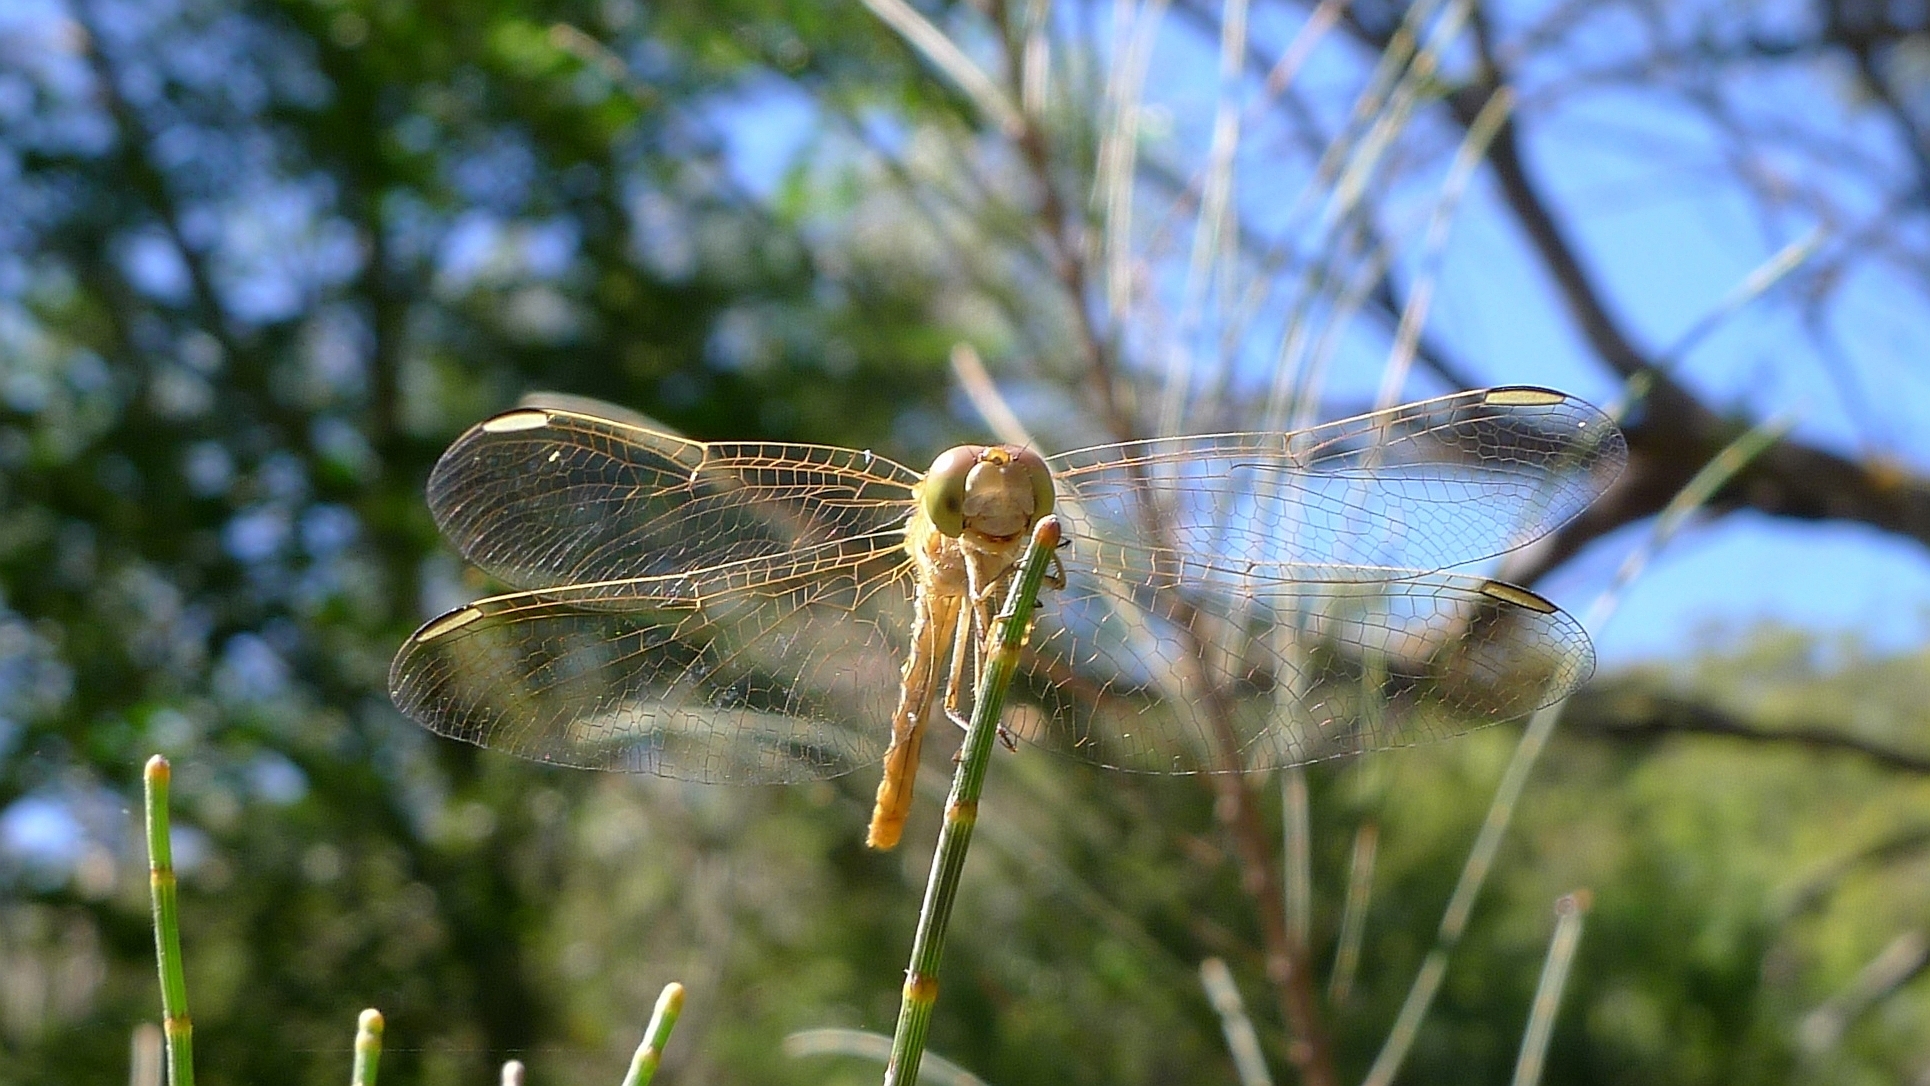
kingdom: Animalia
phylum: Arthropoda
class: Insecta
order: Odonata
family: Libellulidae
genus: Diplacodes
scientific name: Diplacodes haematodes
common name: Scarlet percher
